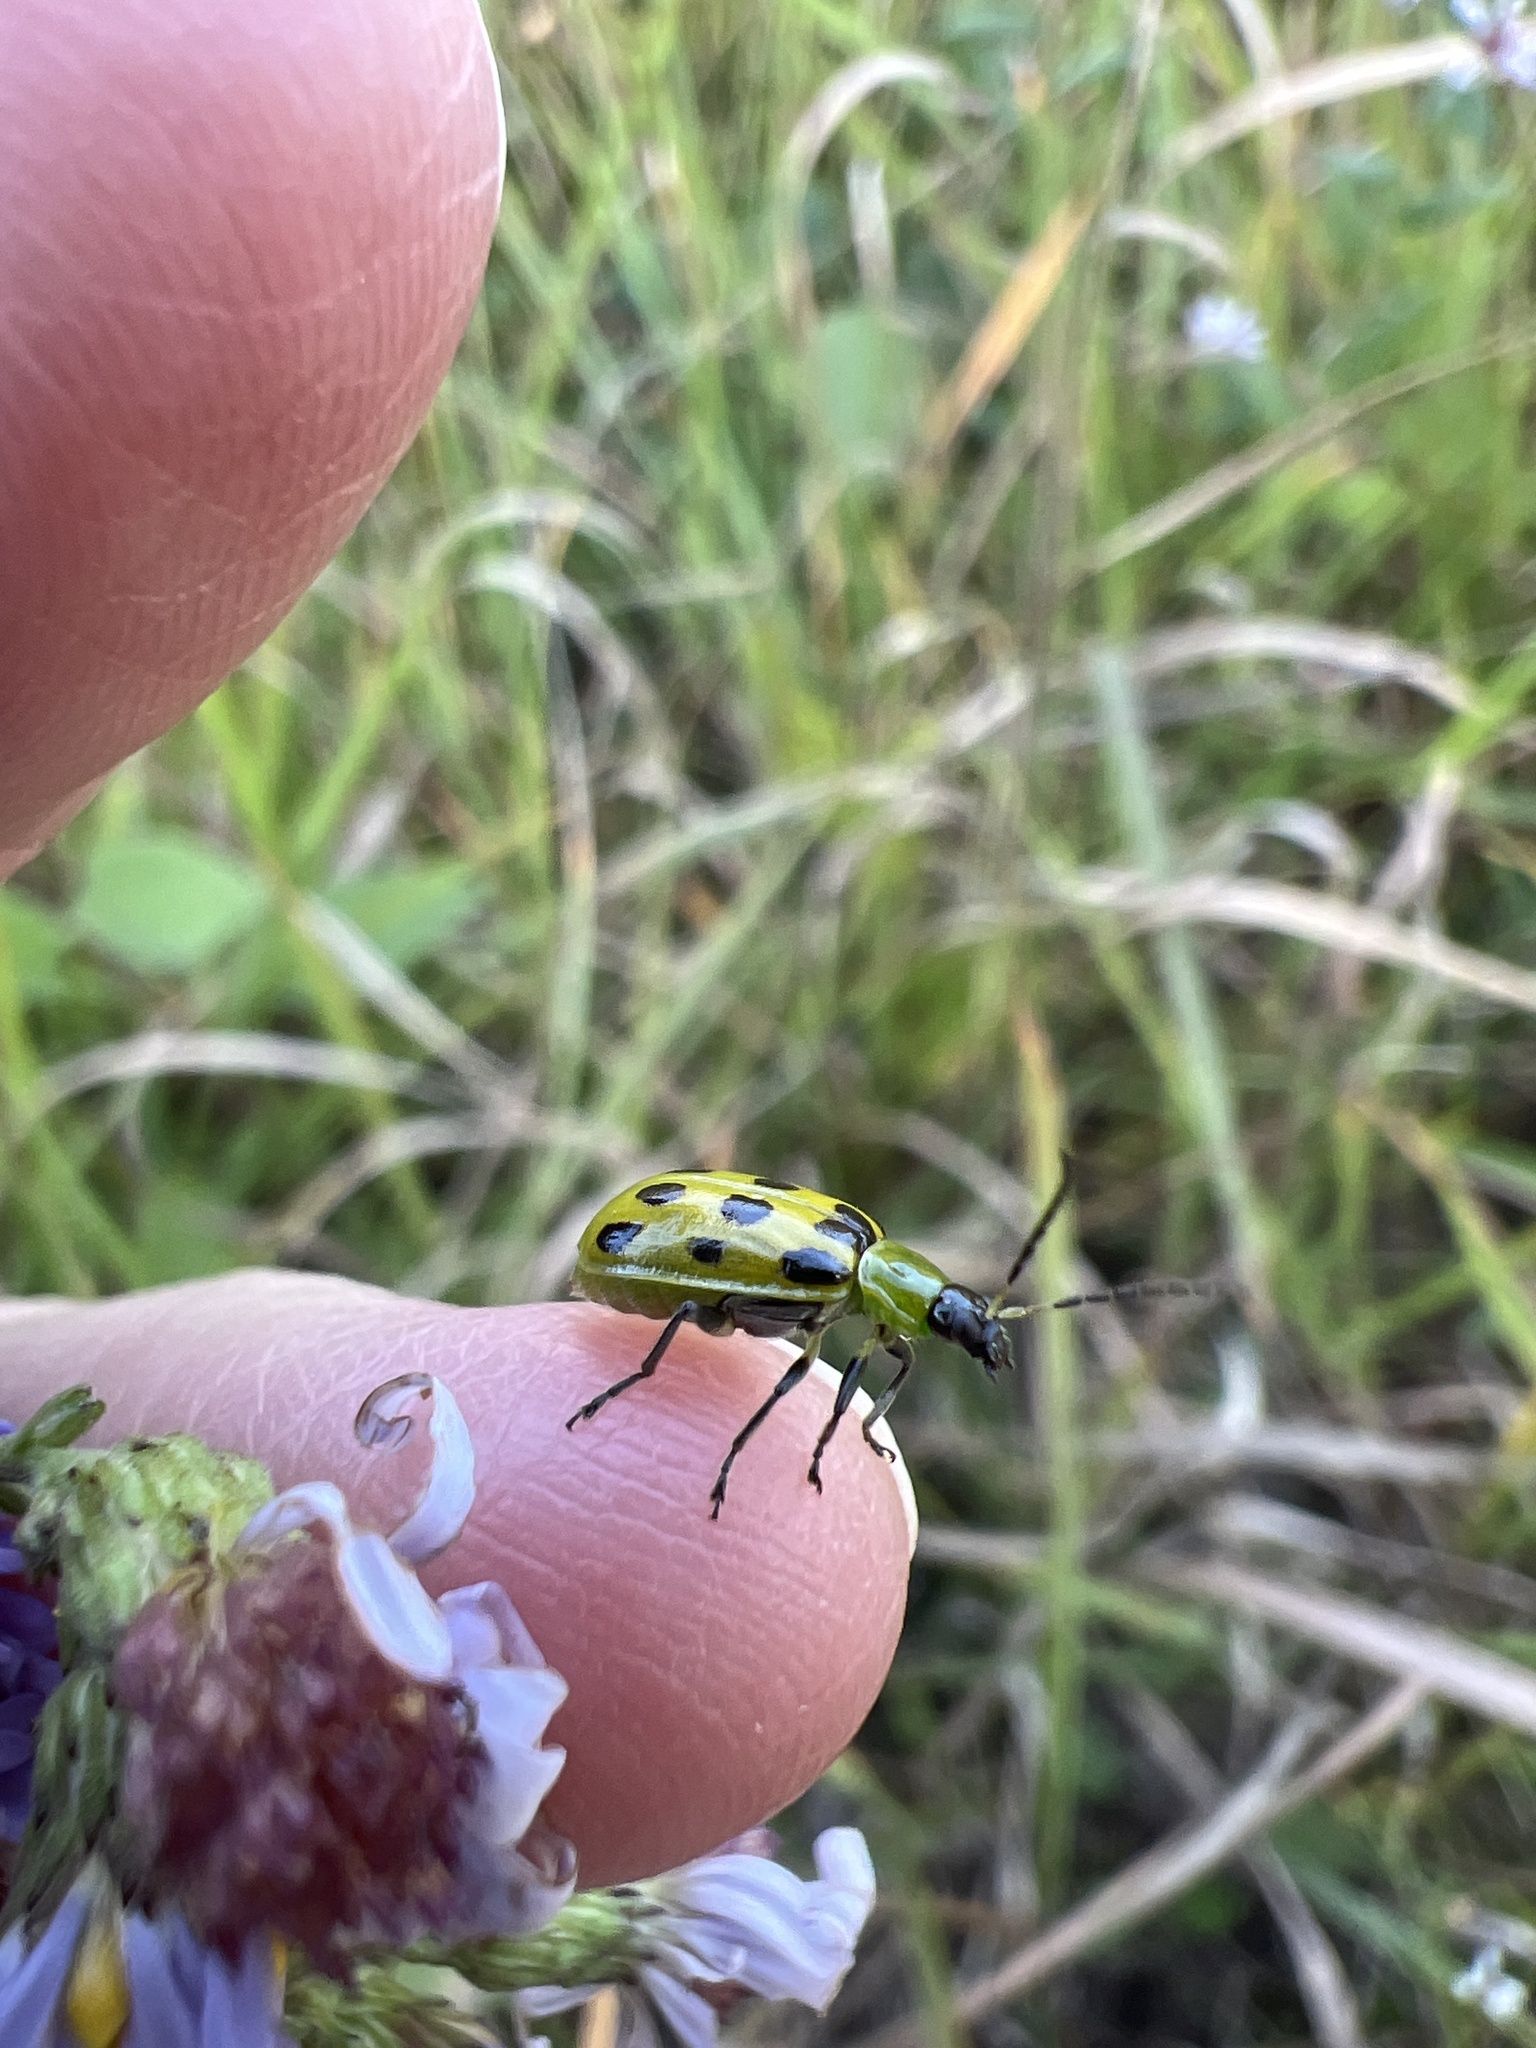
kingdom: Animalia
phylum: Arthropoda
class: Insecta
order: Coleoptera
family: Chrysomelidae
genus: Diabrotica
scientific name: Diabrotica undecimpunctata
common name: Spotted cucumber beetle
